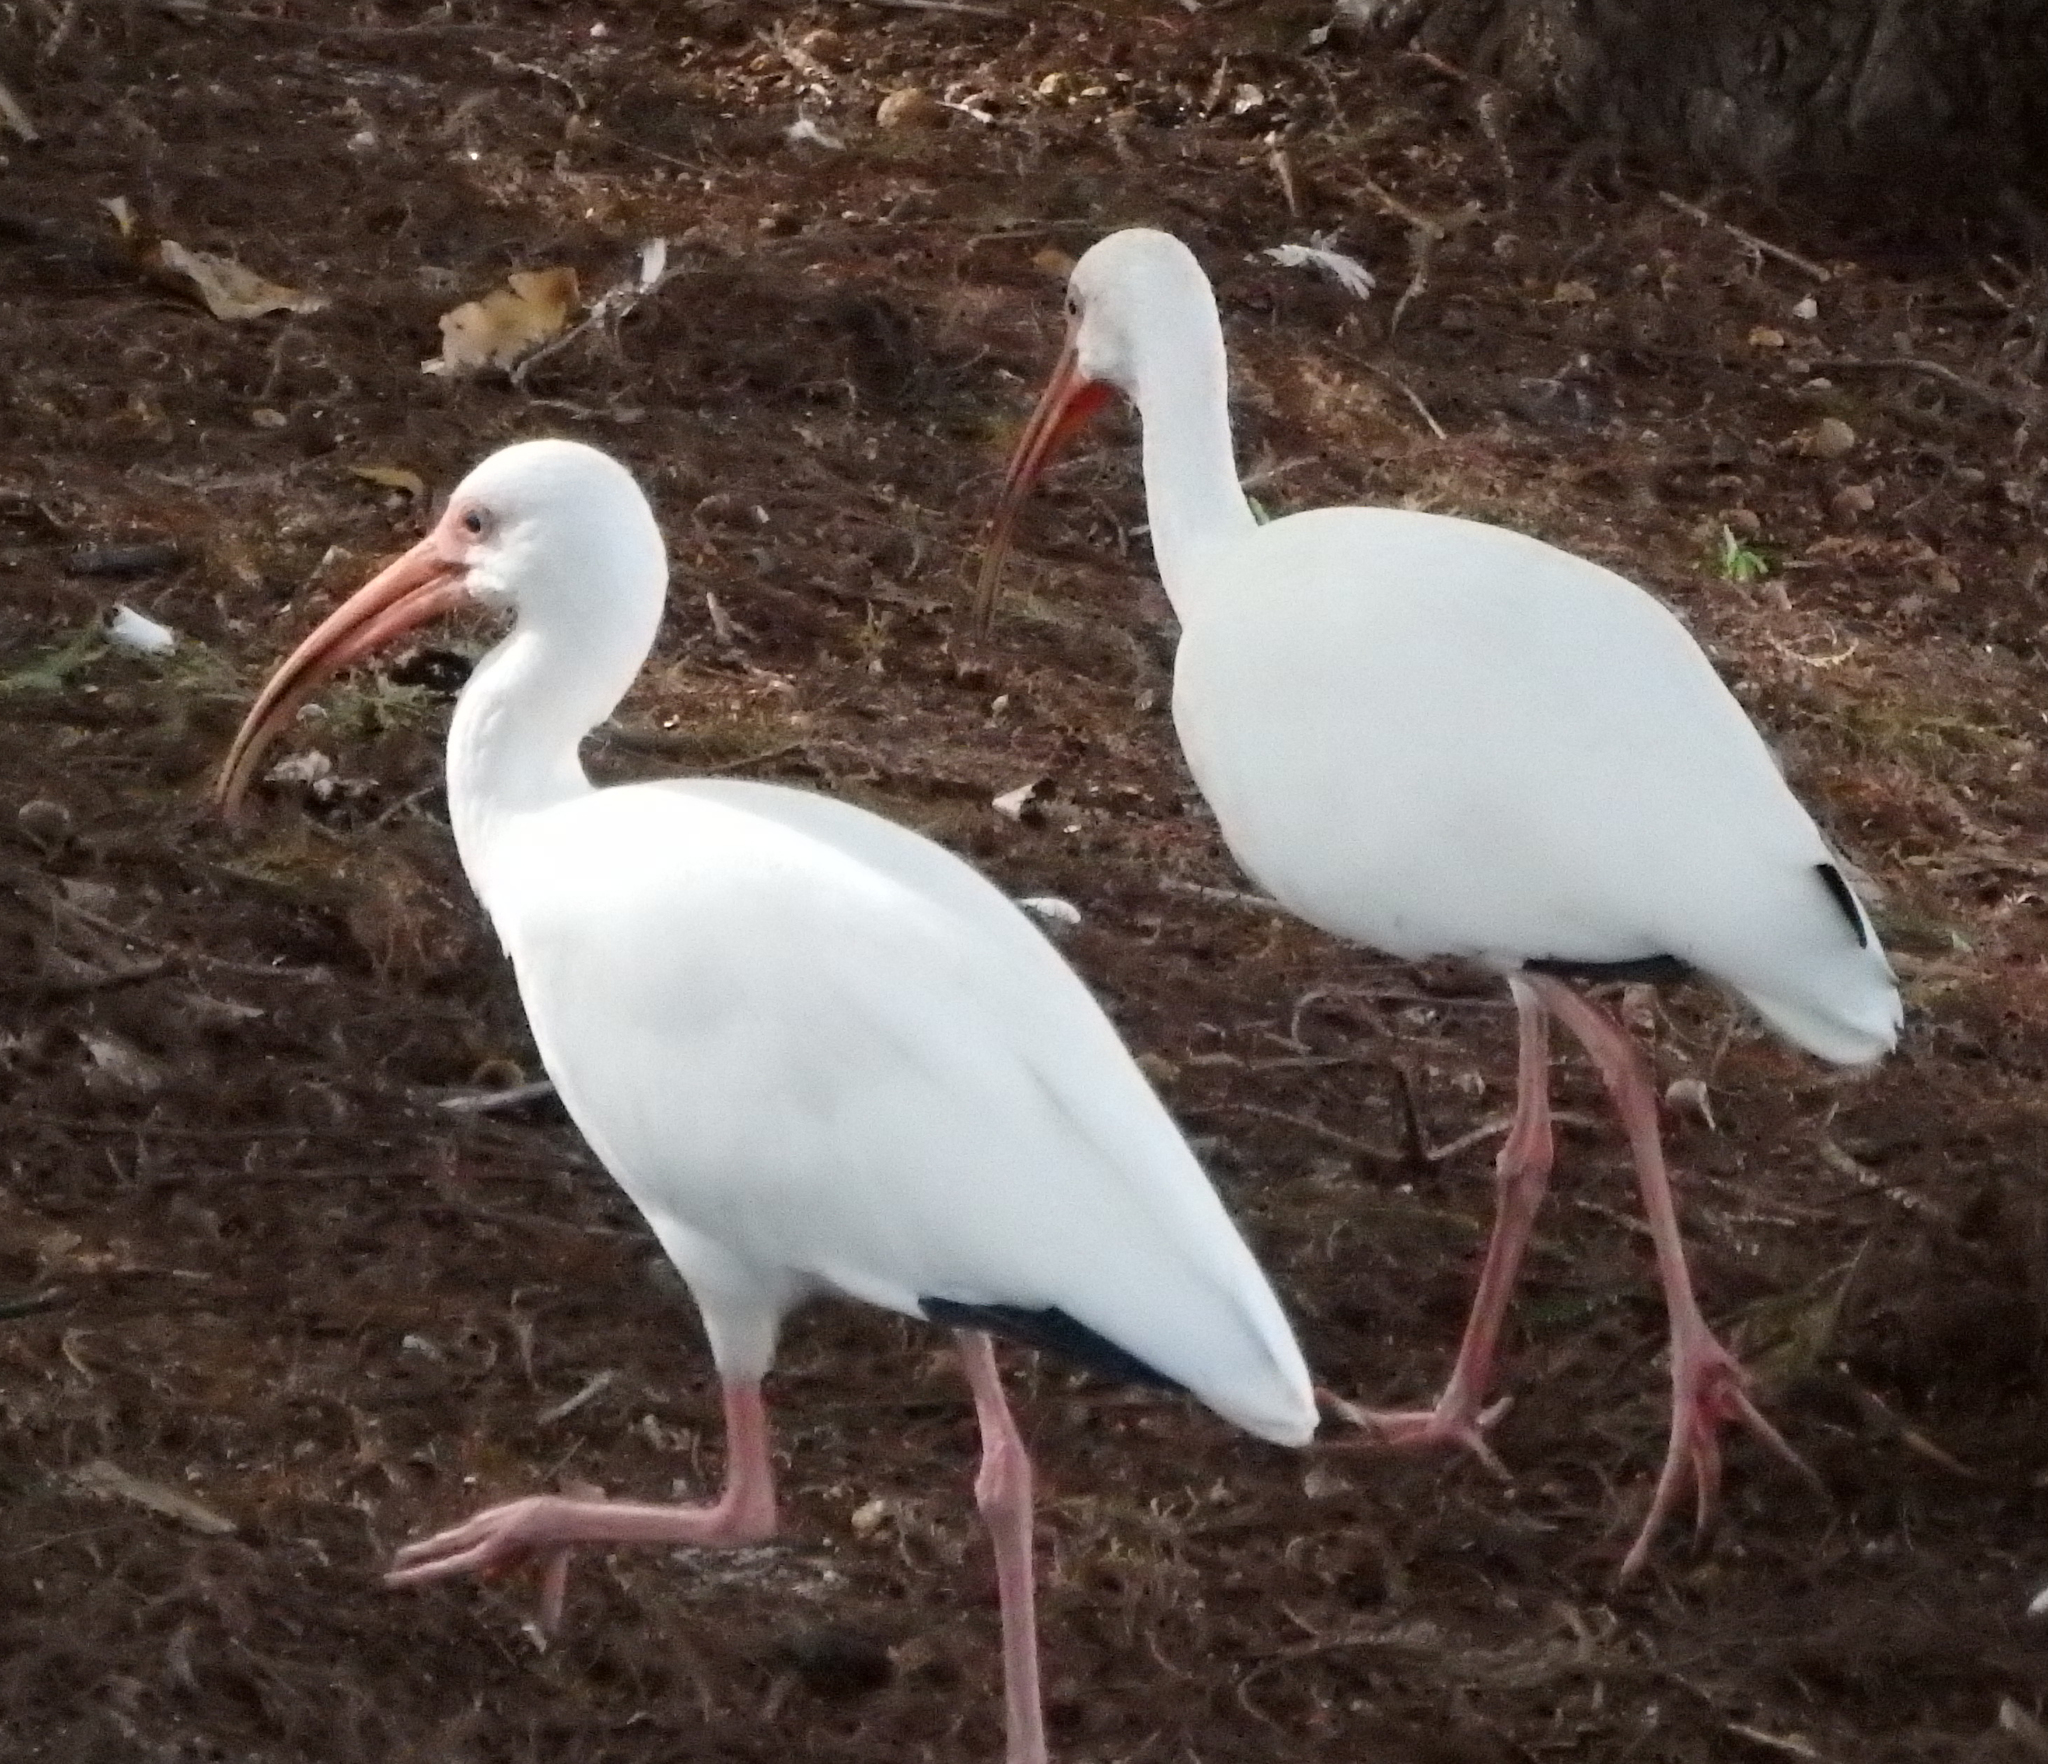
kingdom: Animalia
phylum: Chordata
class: Aves
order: Pelecaniformes
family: Threskiornithidae
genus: Eudocimus
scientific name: Eudocimus albus
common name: White ibis
